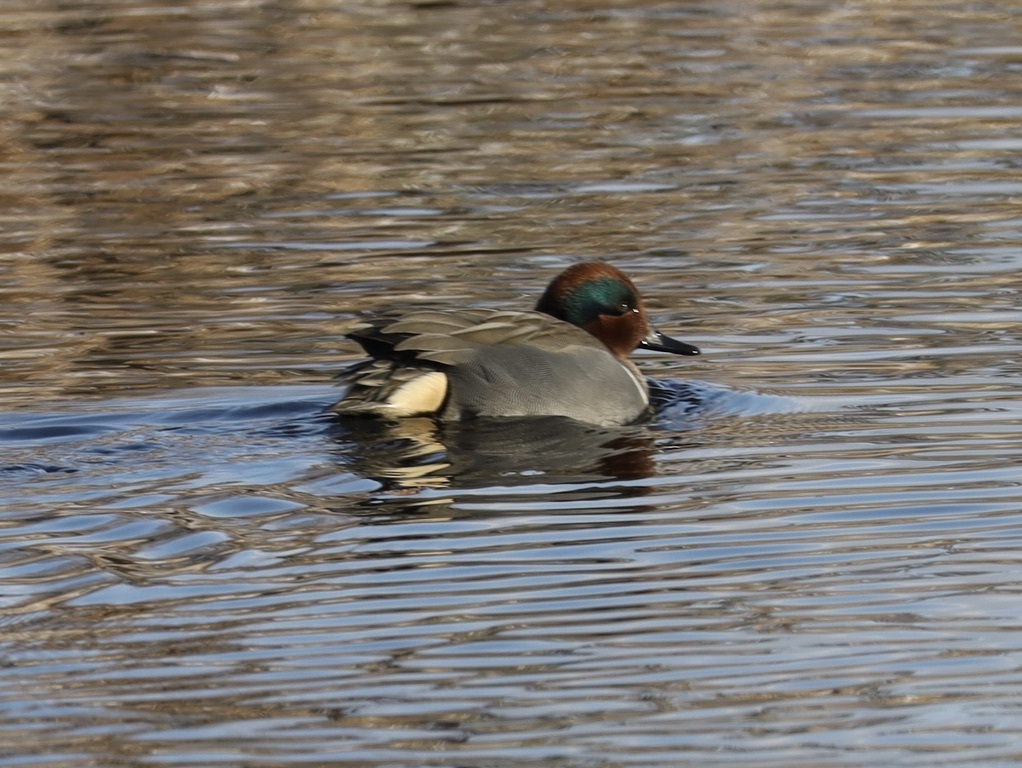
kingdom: Animalia
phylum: Chordata
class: Aves
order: Anseriformes
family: Anatidae
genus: Anas
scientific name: Anas carolinensis
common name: Green-winged teal
